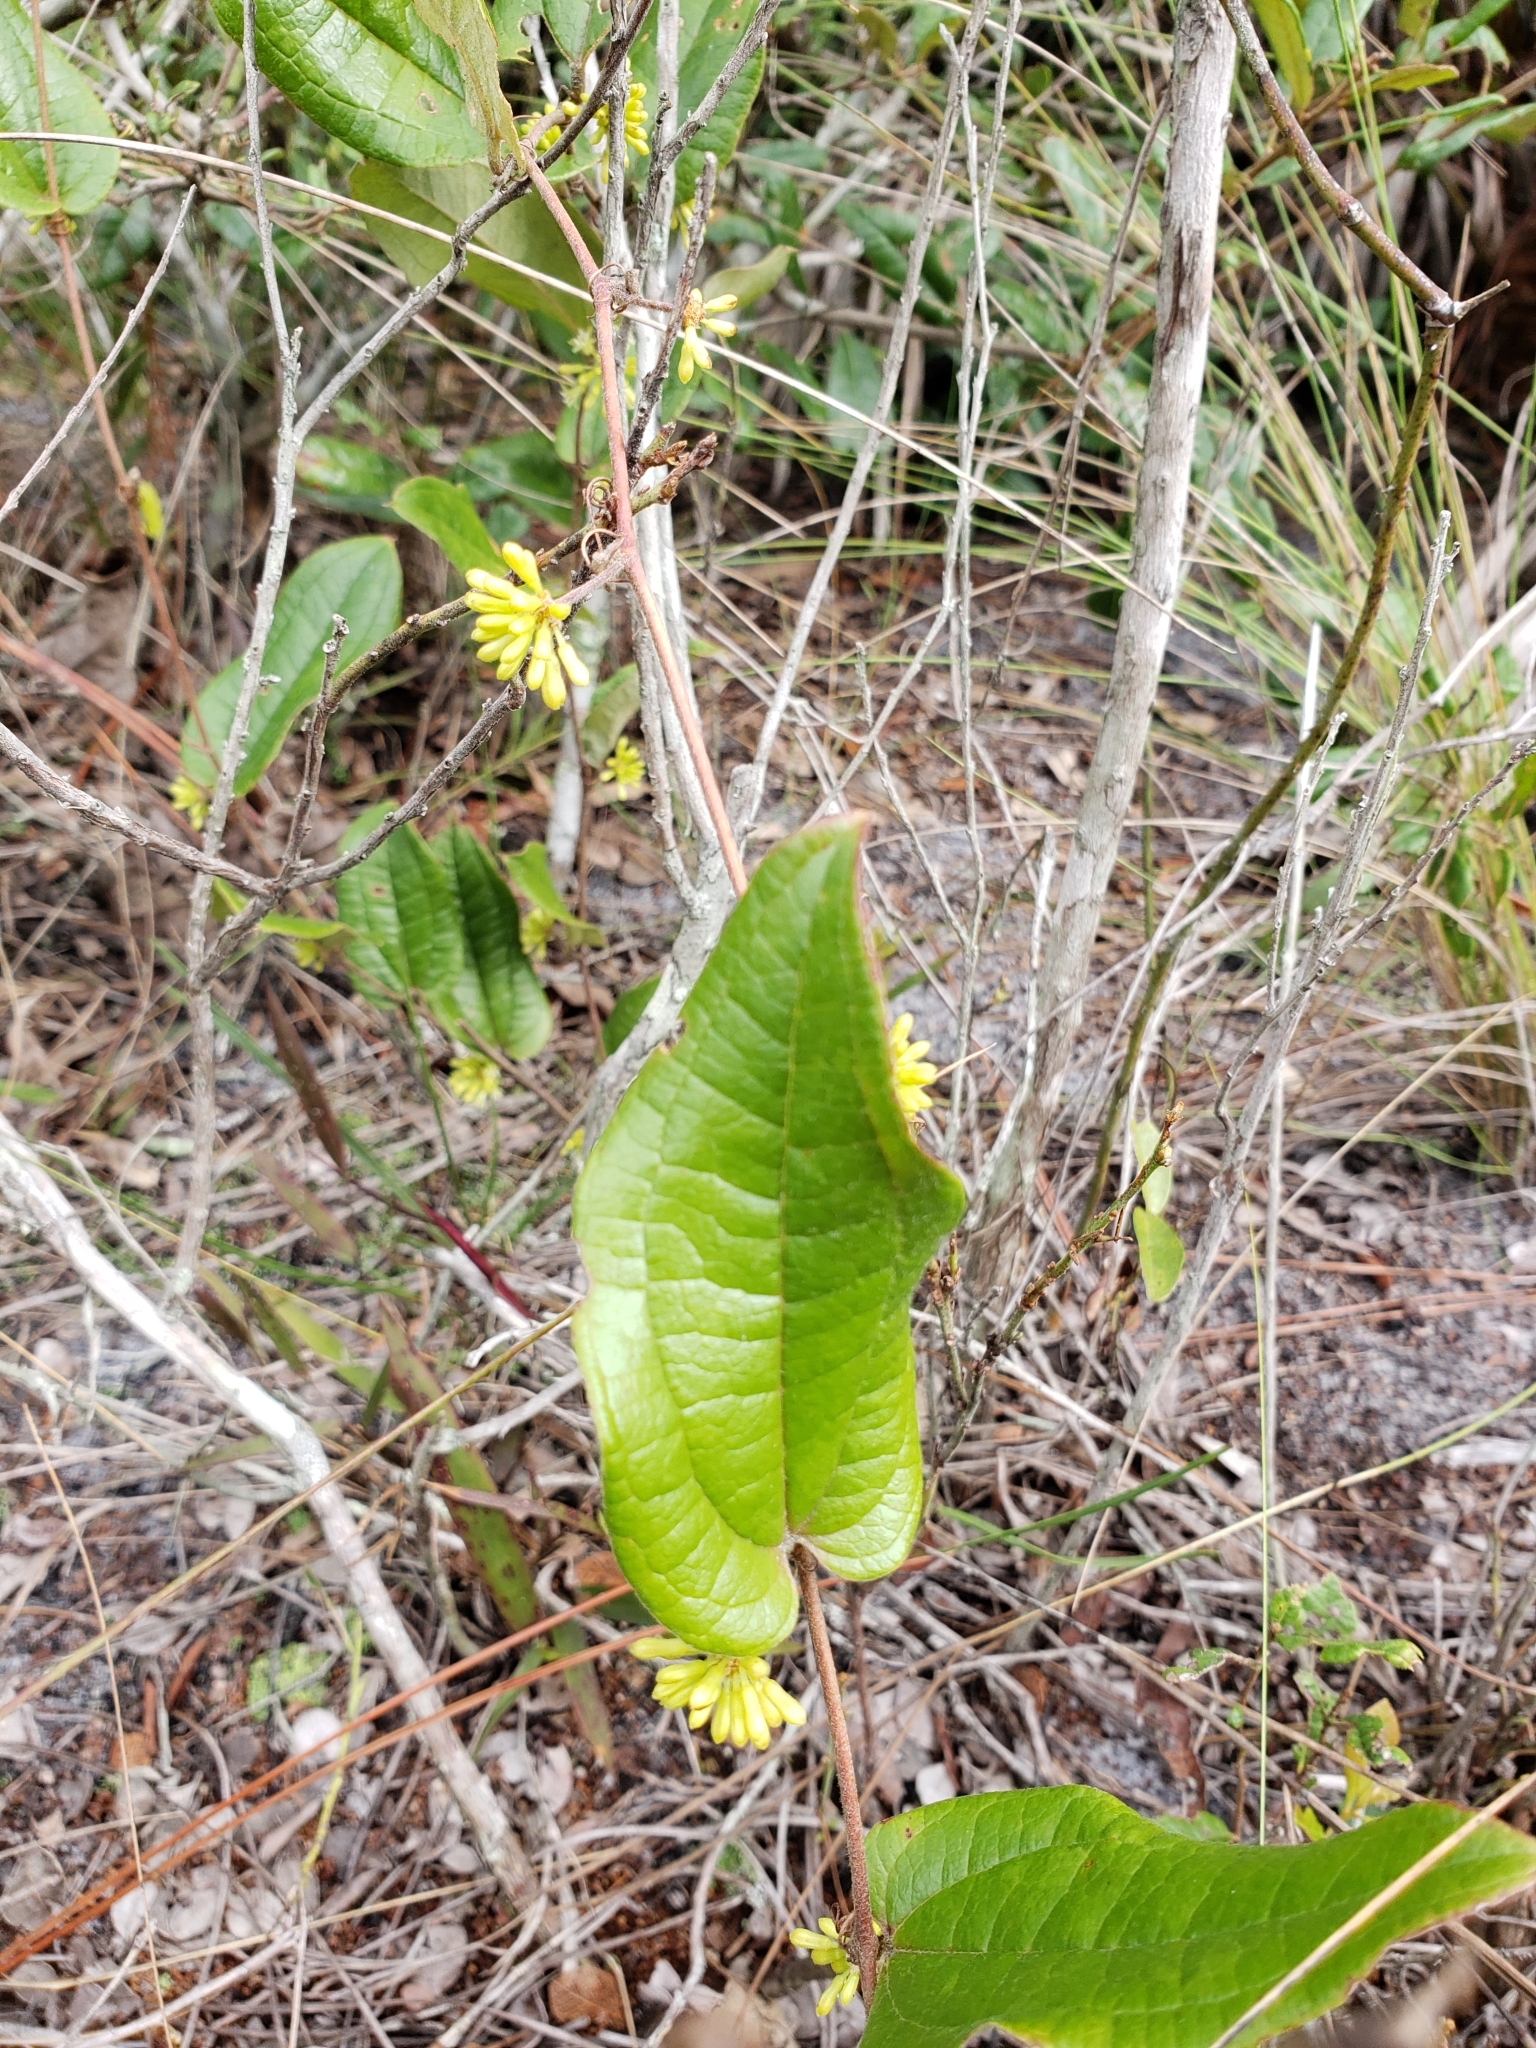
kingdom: Plantae
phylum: Tracheophyta
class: Liliopsida
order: Liliales
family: Smilacaceae
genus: Smilax
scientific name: Smilax pumila
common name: Sarsaparilla-vine
